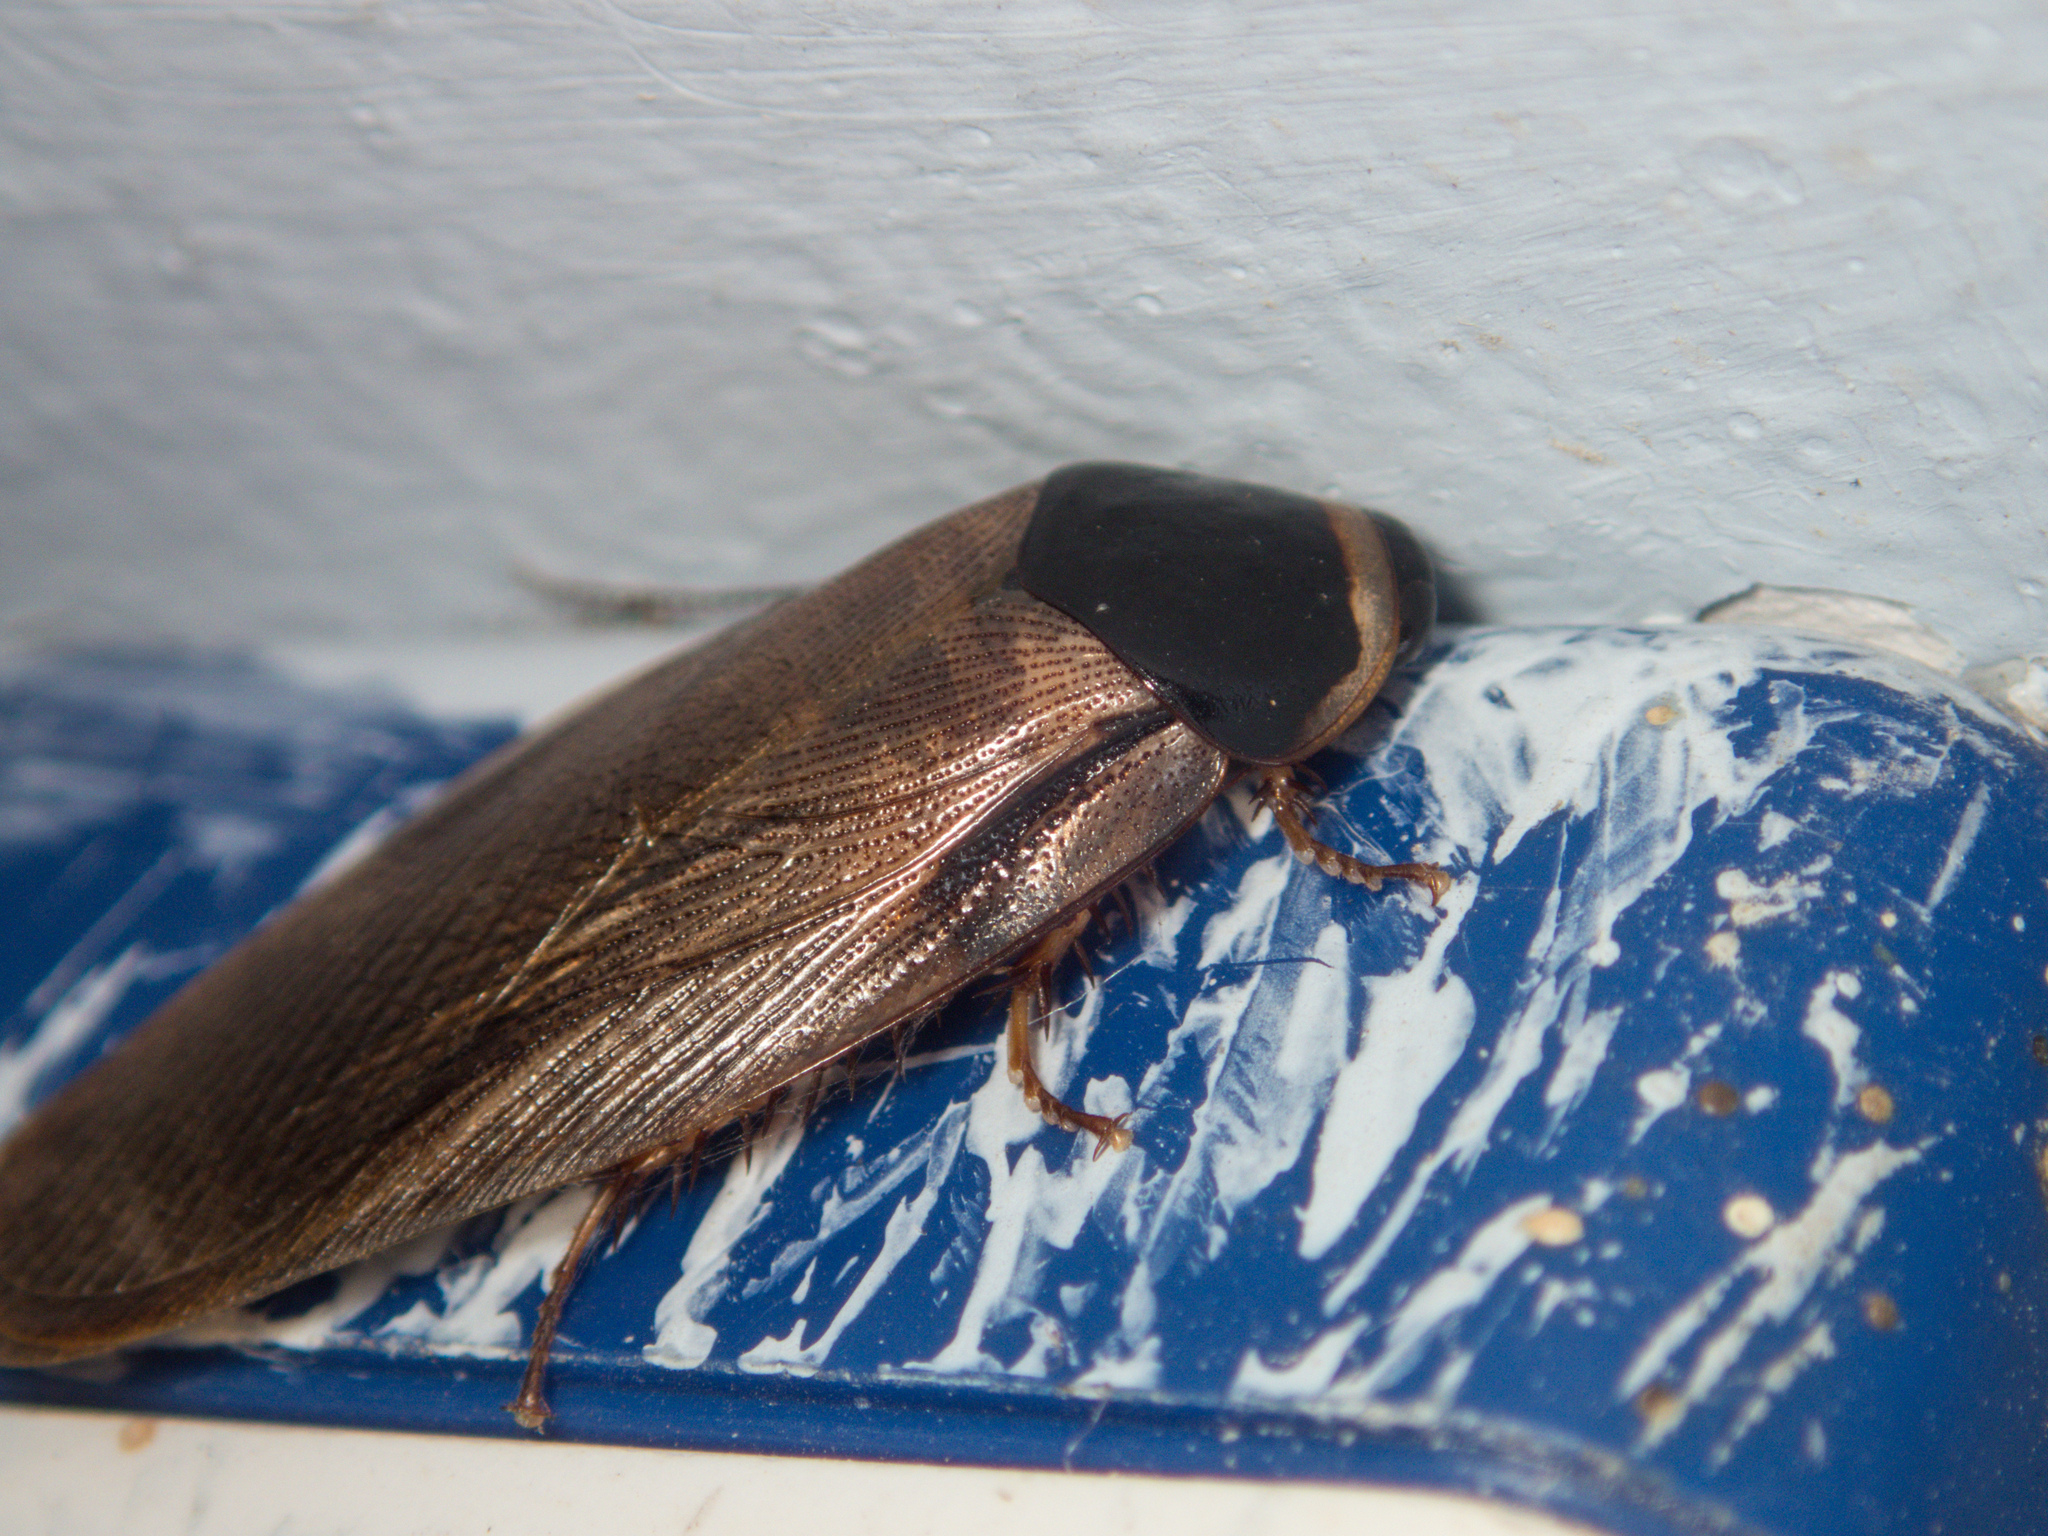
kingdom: Animalia
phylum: Arthropoda
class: Insecta
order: Blattodea
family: Blaberidae
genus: Pycnoscelus
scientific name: Pycnoscelus indicus
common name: Burrowing cockroach
